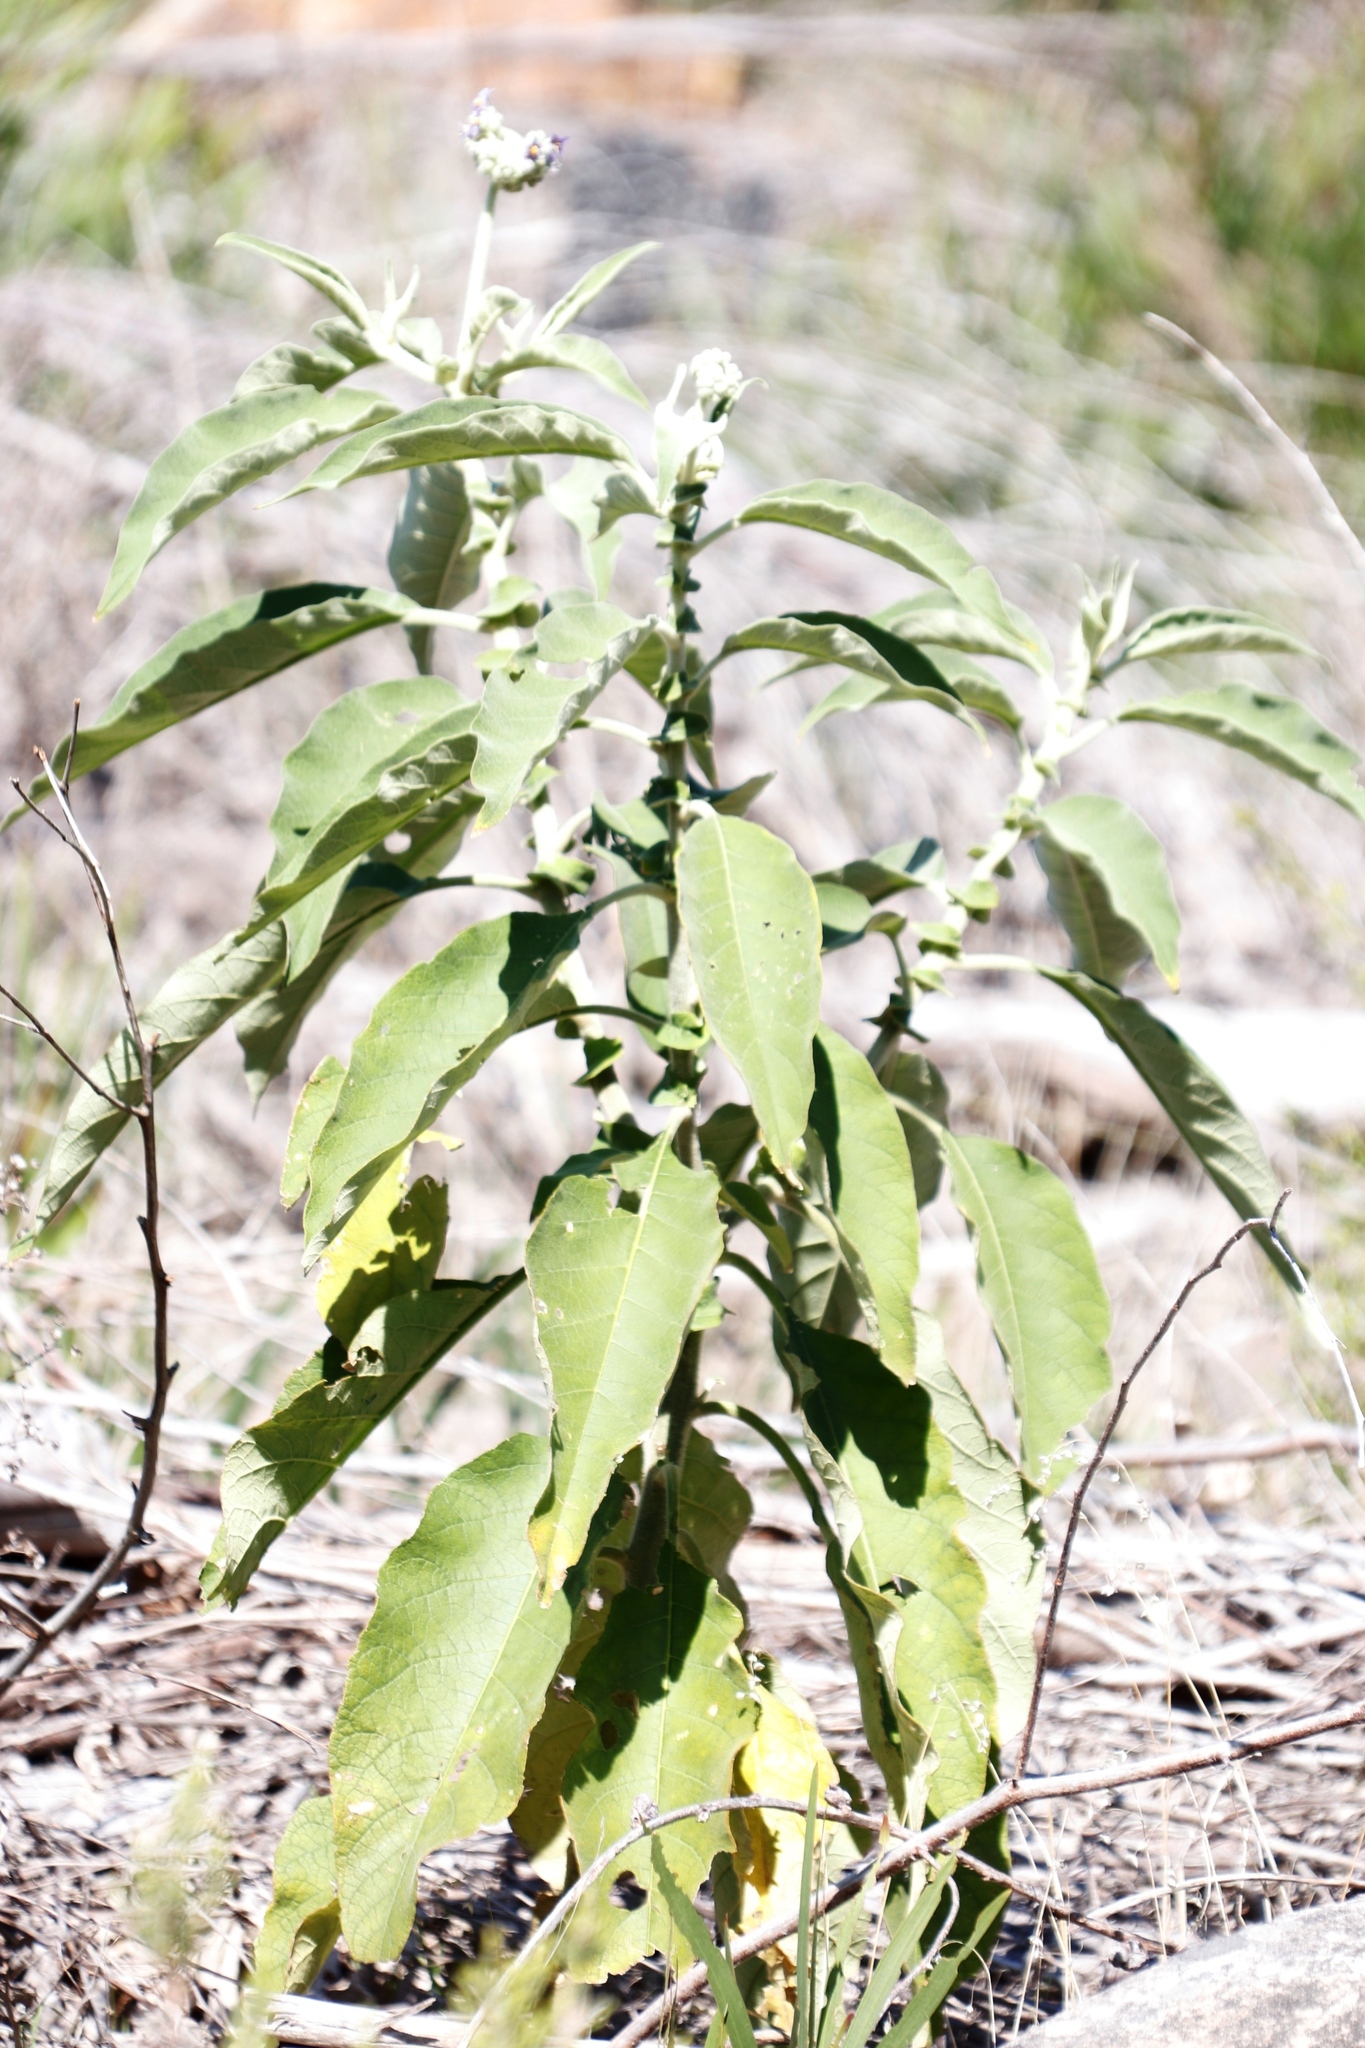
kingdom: Plantae
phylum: Tracheophyta
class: Magnoliopsida
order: Solanales
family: Solanaceae
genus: Solanum
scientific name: Solanum mauritianum
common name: Earleaf nightshade
